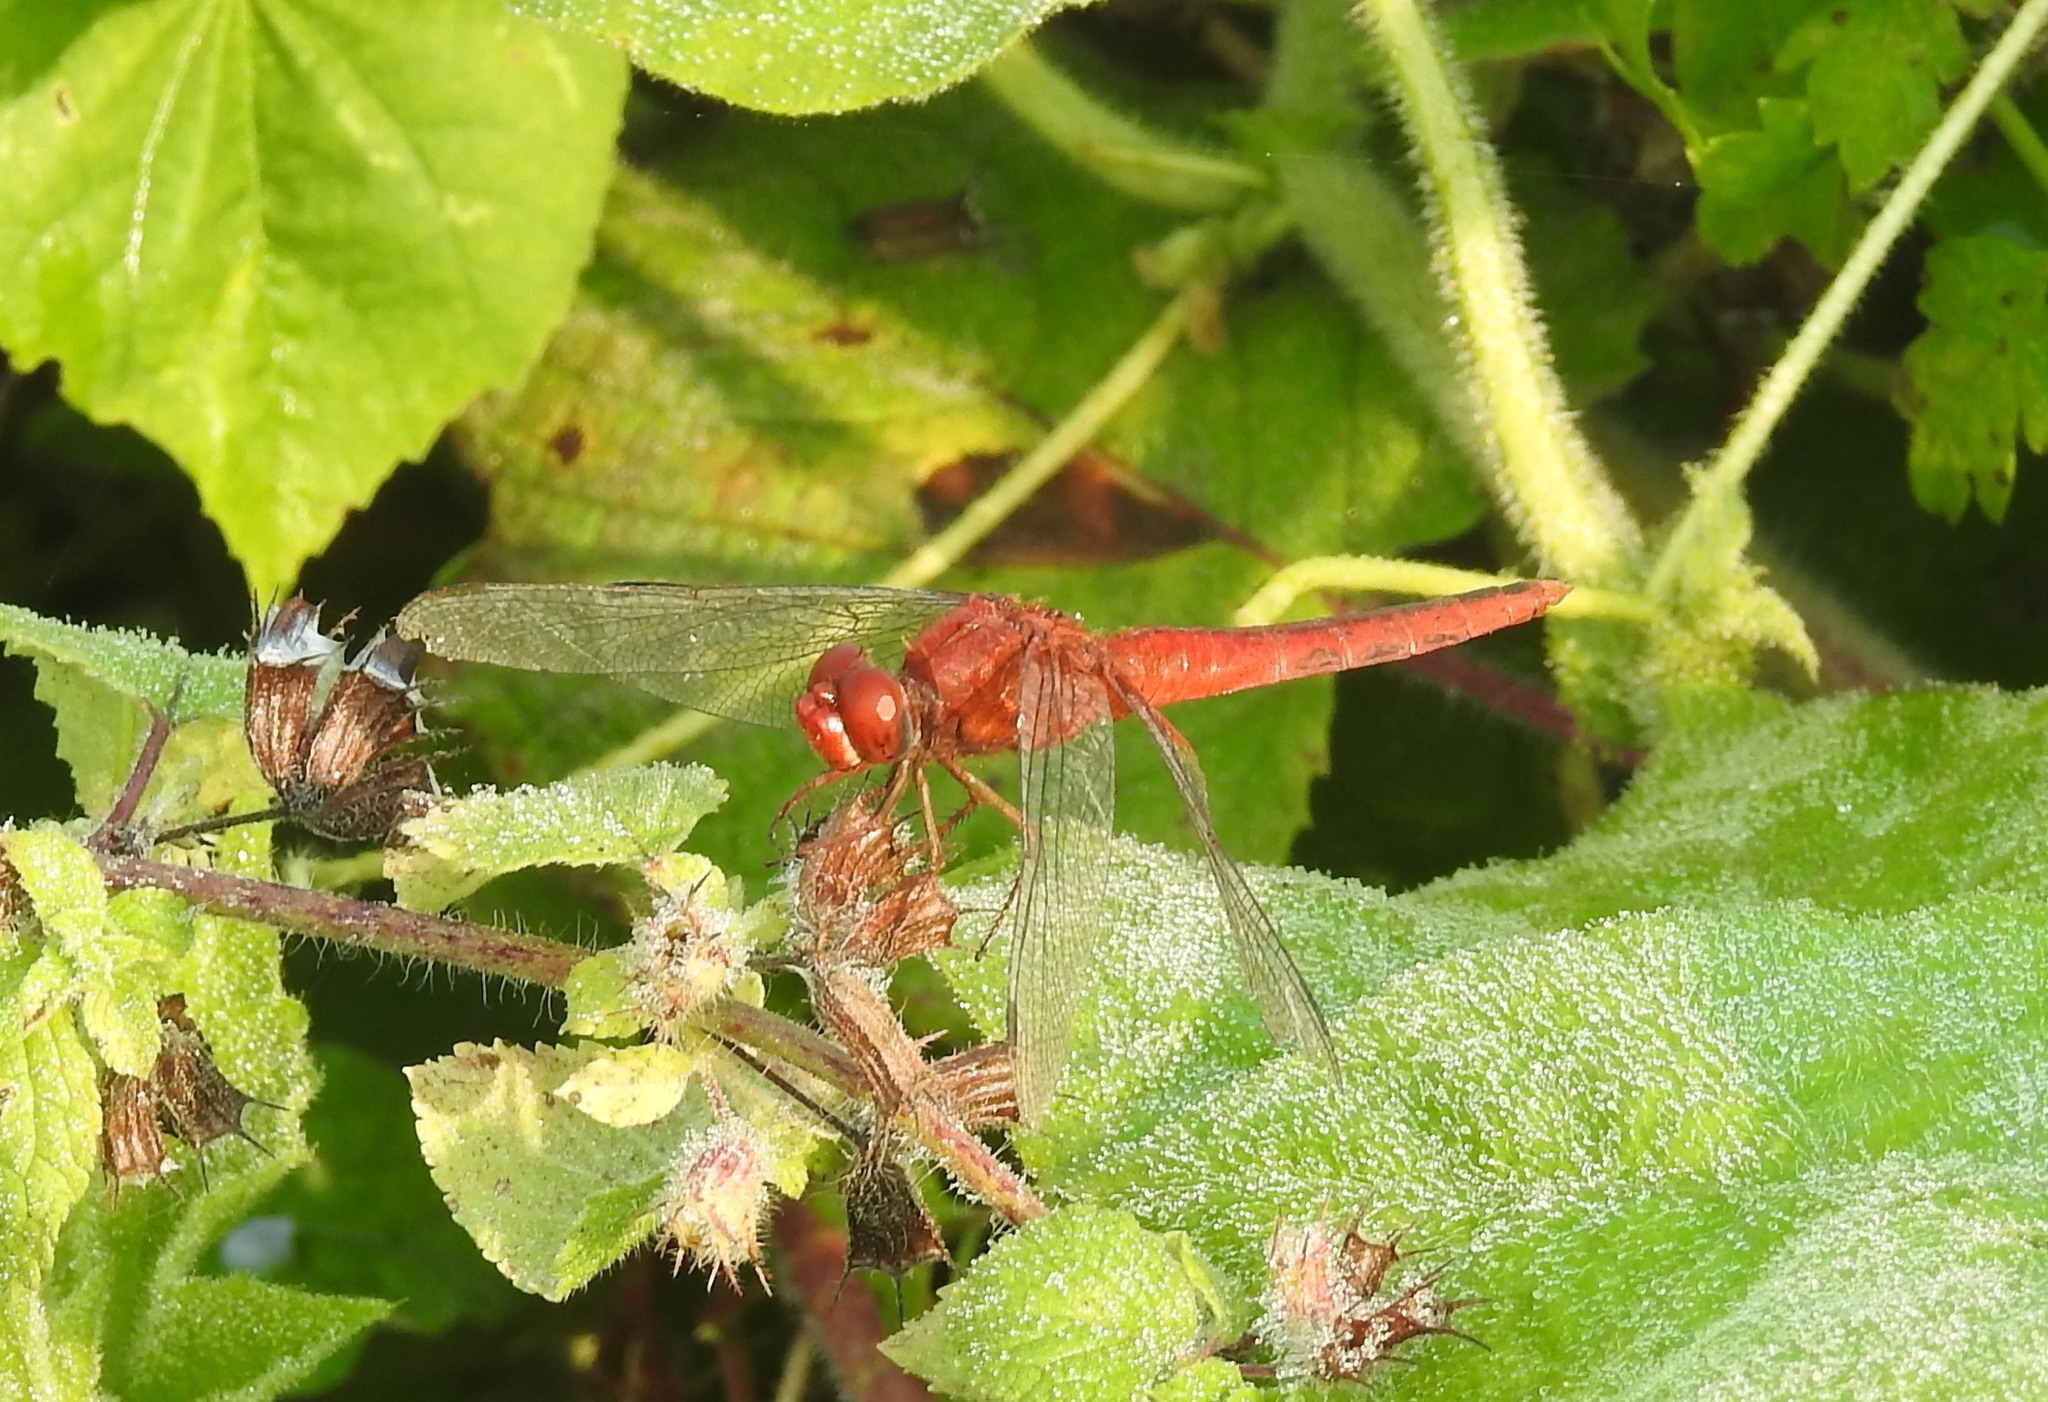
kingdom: Animalia
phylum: Arthropoda
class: Insecta
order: Odonata
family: Libellulidae
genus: Crocothemis
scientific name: Crocothemis servilia
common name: Scarlet skimmer
